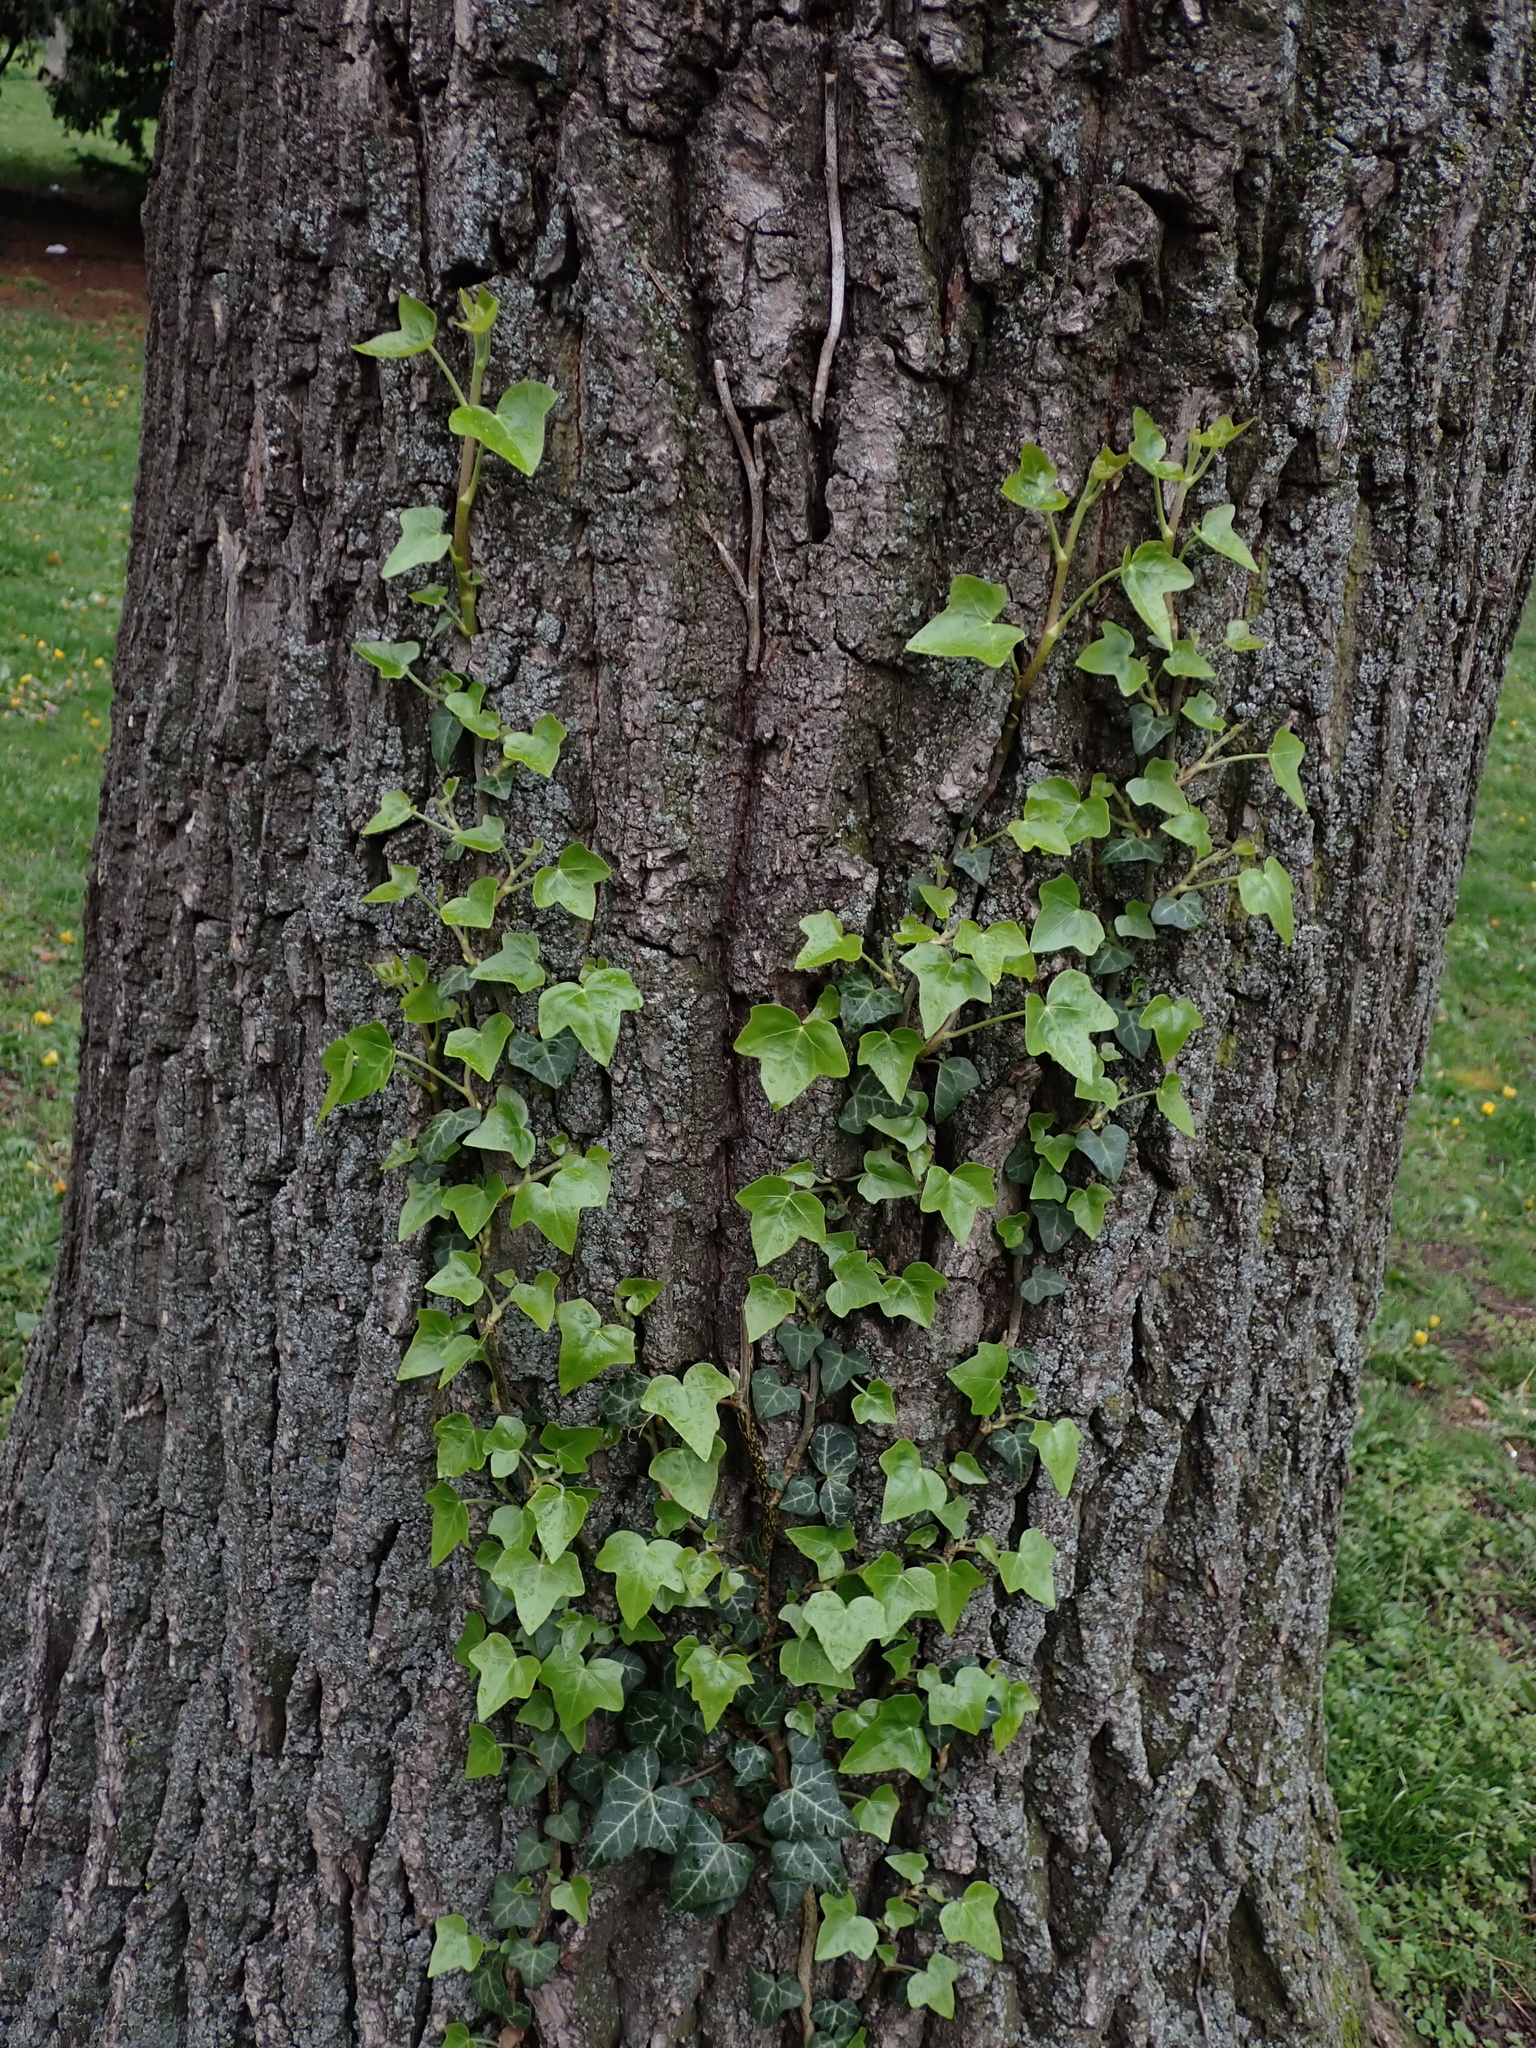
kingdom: Plantae
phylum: Tracheophyta
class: Magnoliopsida
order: Apiales
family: Araliaceae
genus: Hedera
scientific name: Hedera helix
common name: Ivy
